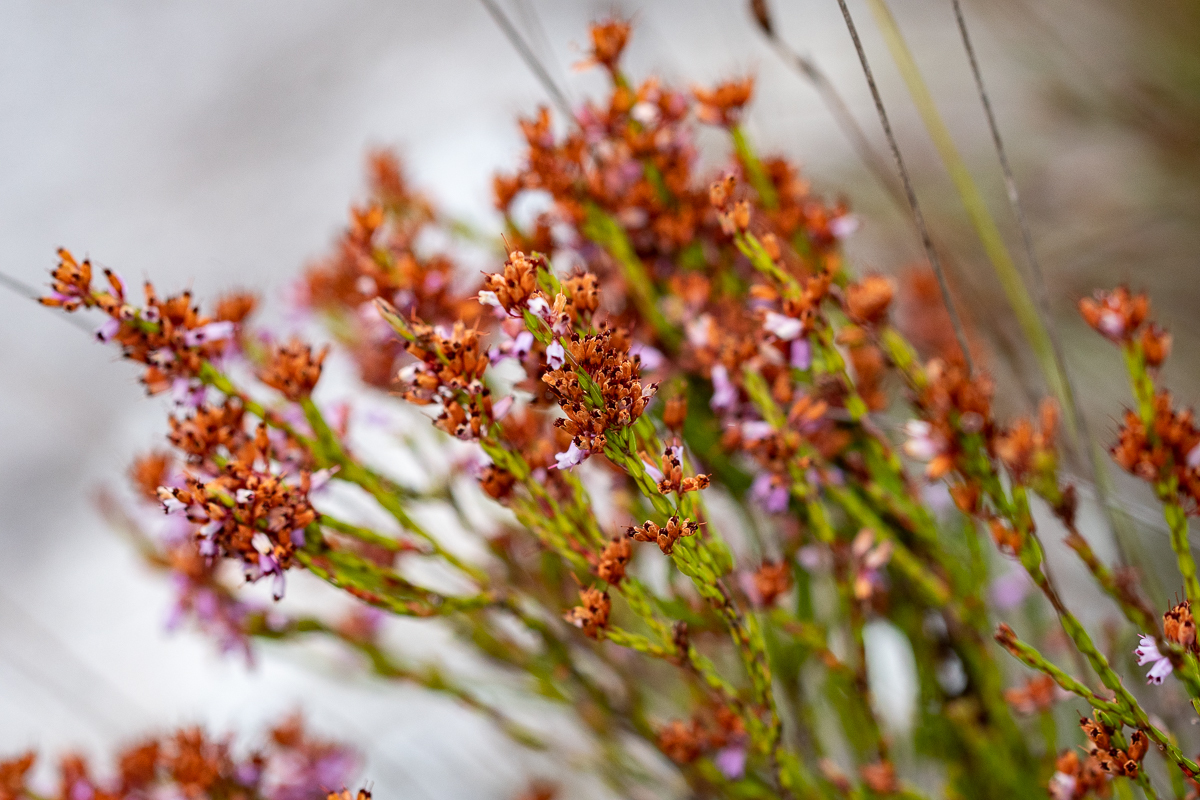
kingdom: Plantae
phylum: Tracheophyta
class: Magnoliopsida
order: Ericales
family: Ericaceae
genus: Erica
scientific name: Erica equisetifolia
